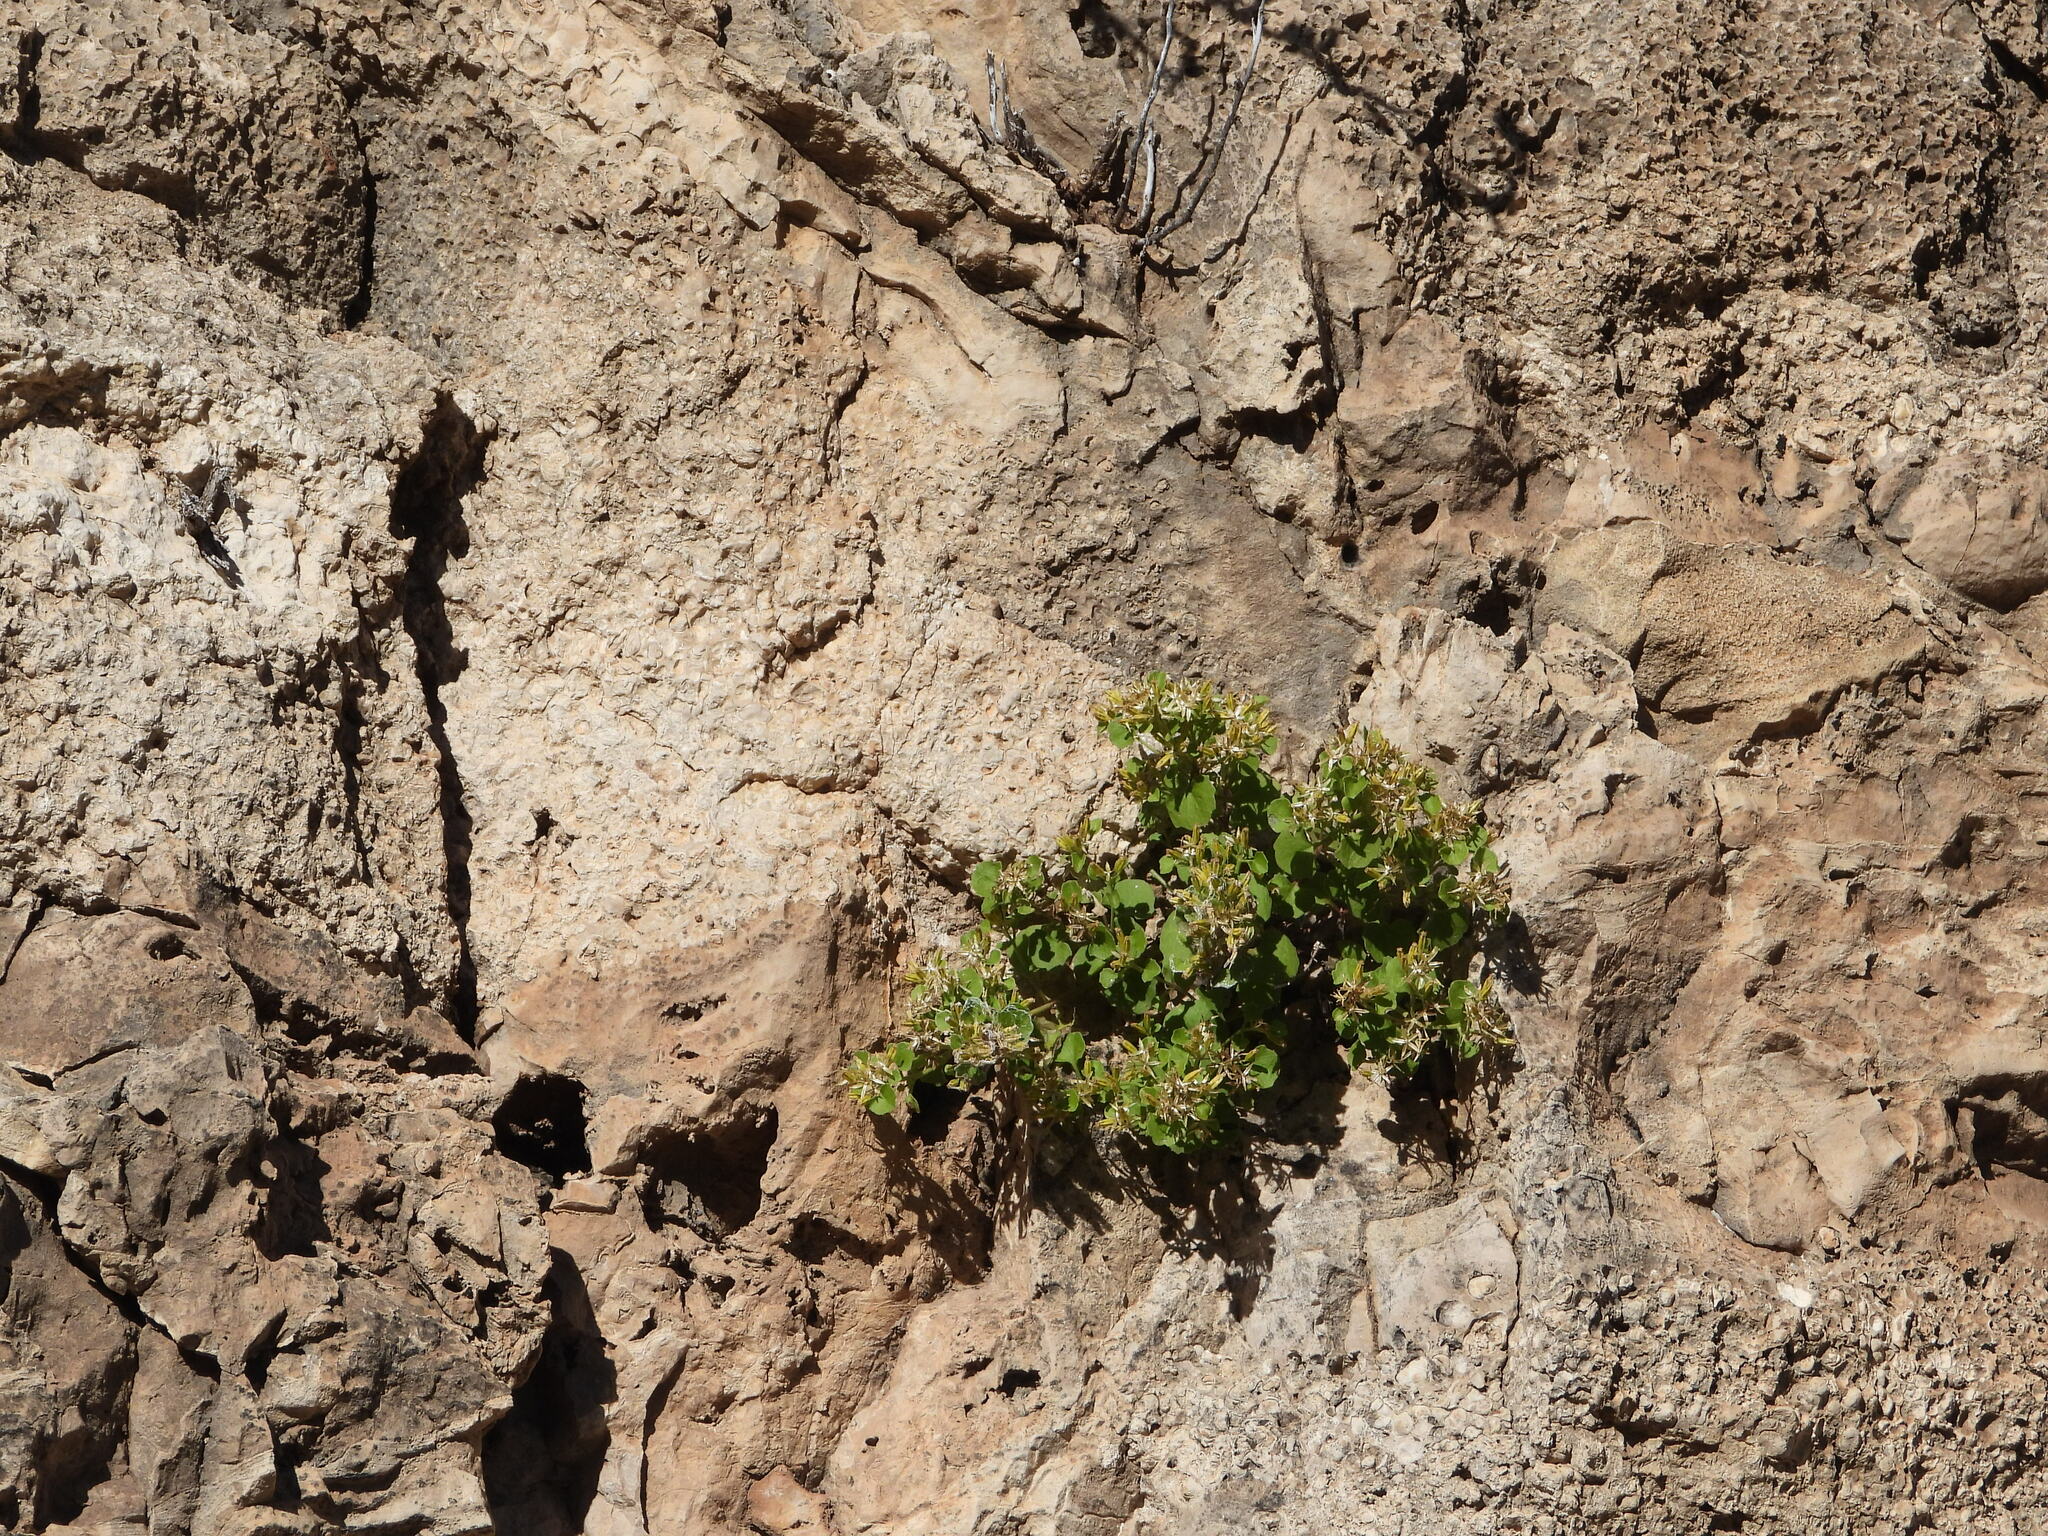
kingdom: Plantae
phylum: Tracheophyta
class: Magnoliopsida
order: Asterales
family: Asteraceae
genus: Laphamia
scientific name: Laphamia quinqueflora
